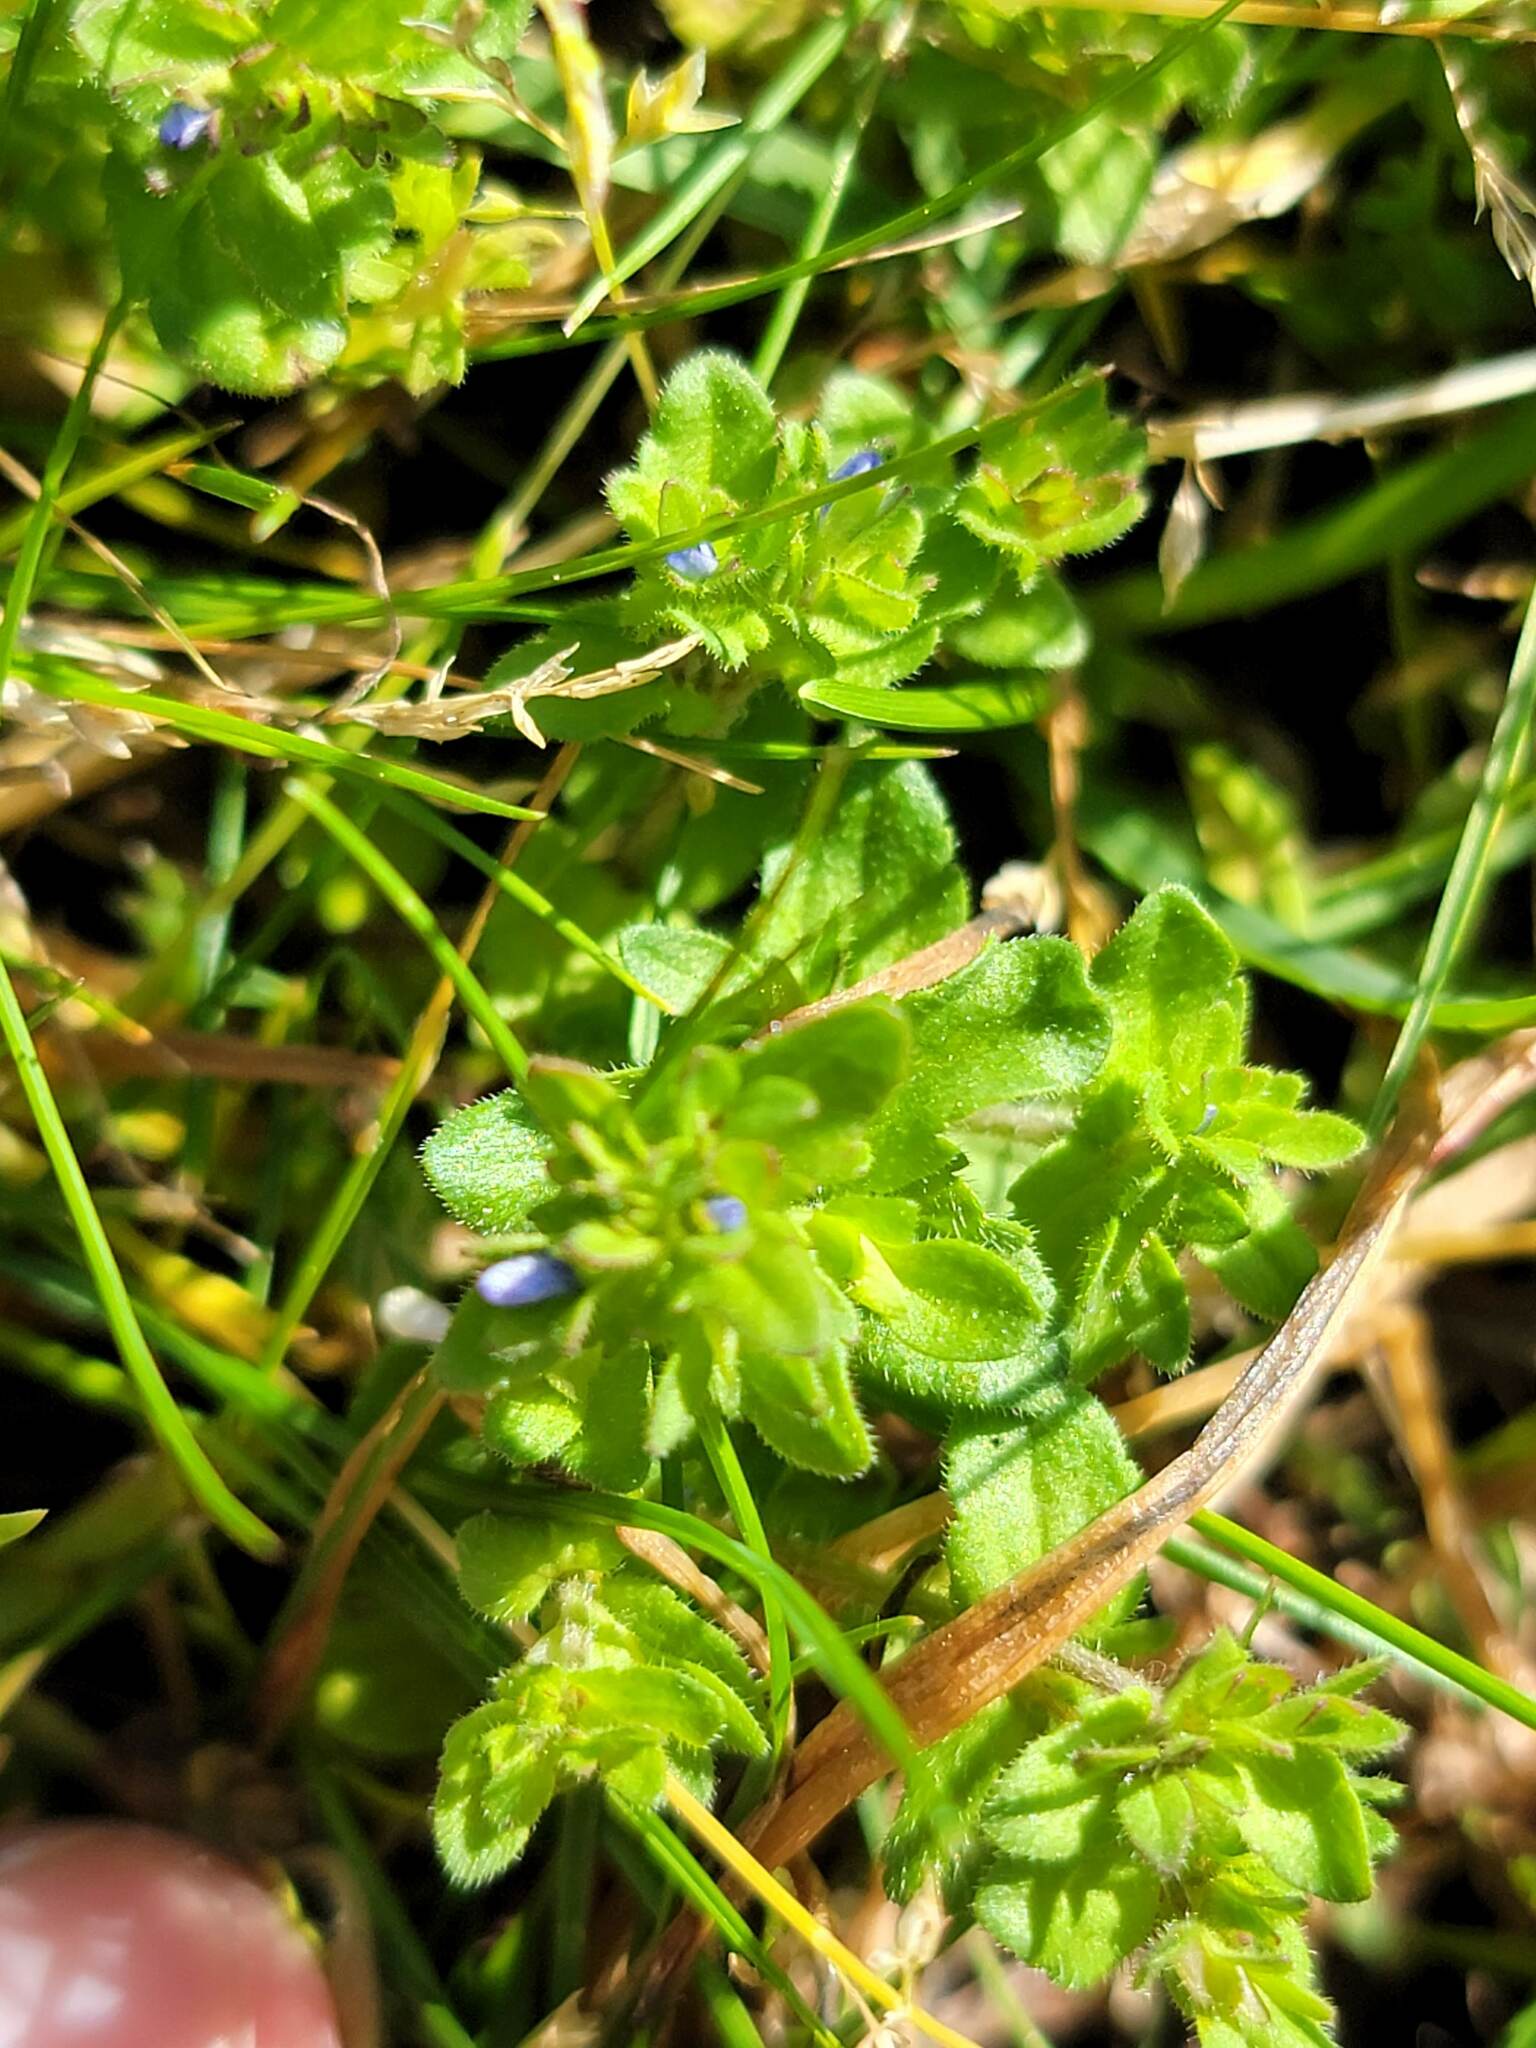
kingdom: Plantae
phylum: Tracheophyta
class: Magnoliopsida
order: Lamiales
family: Plantaginaceae
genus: Veronica
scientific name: Veronica arvensis
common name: Corn speedwell
